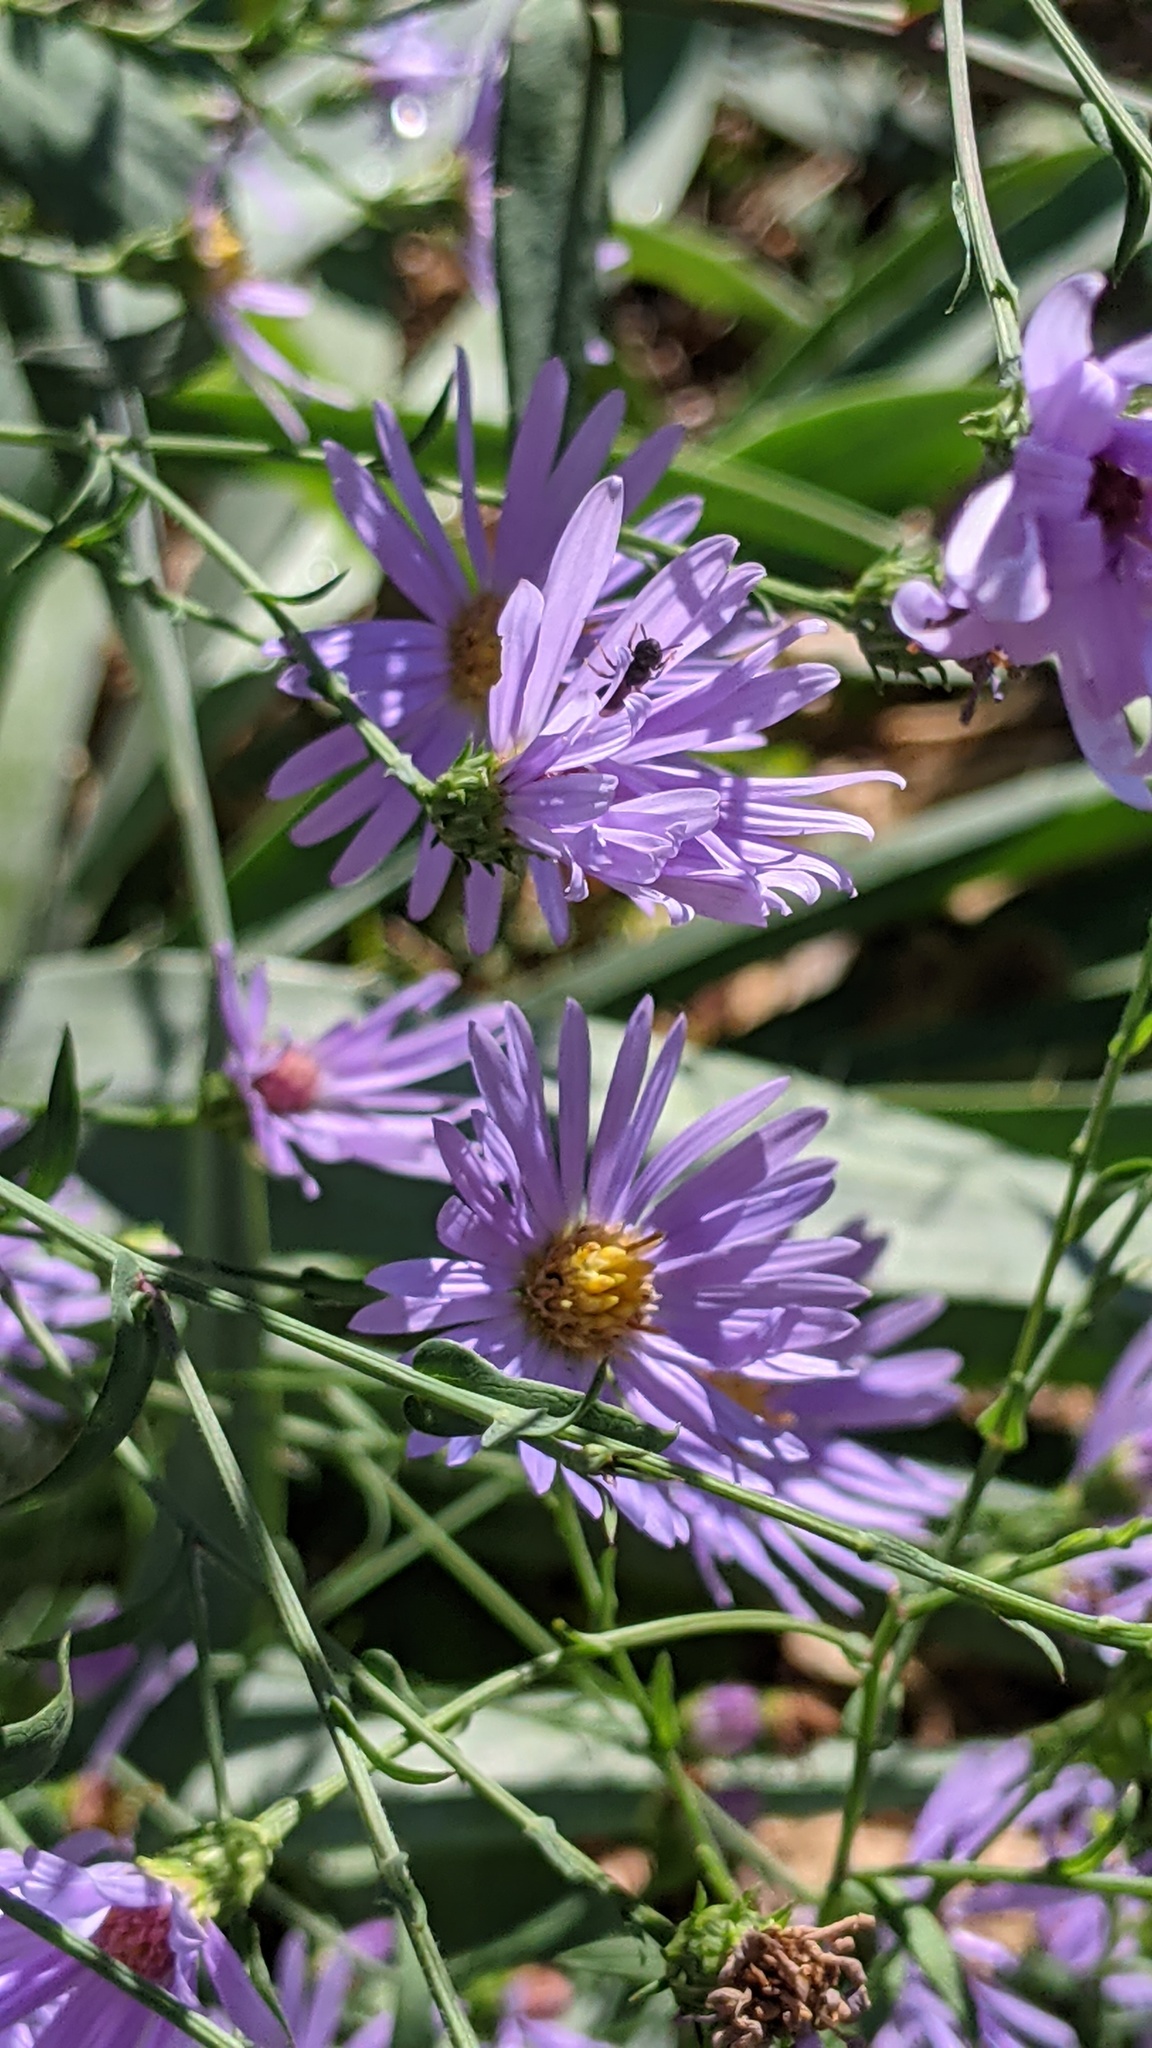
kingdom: Animalia
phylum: Arthropoda
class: Insecta
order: Hymenoptera
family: Apidae
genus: Zadontomerus
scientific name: Zadontomerus
